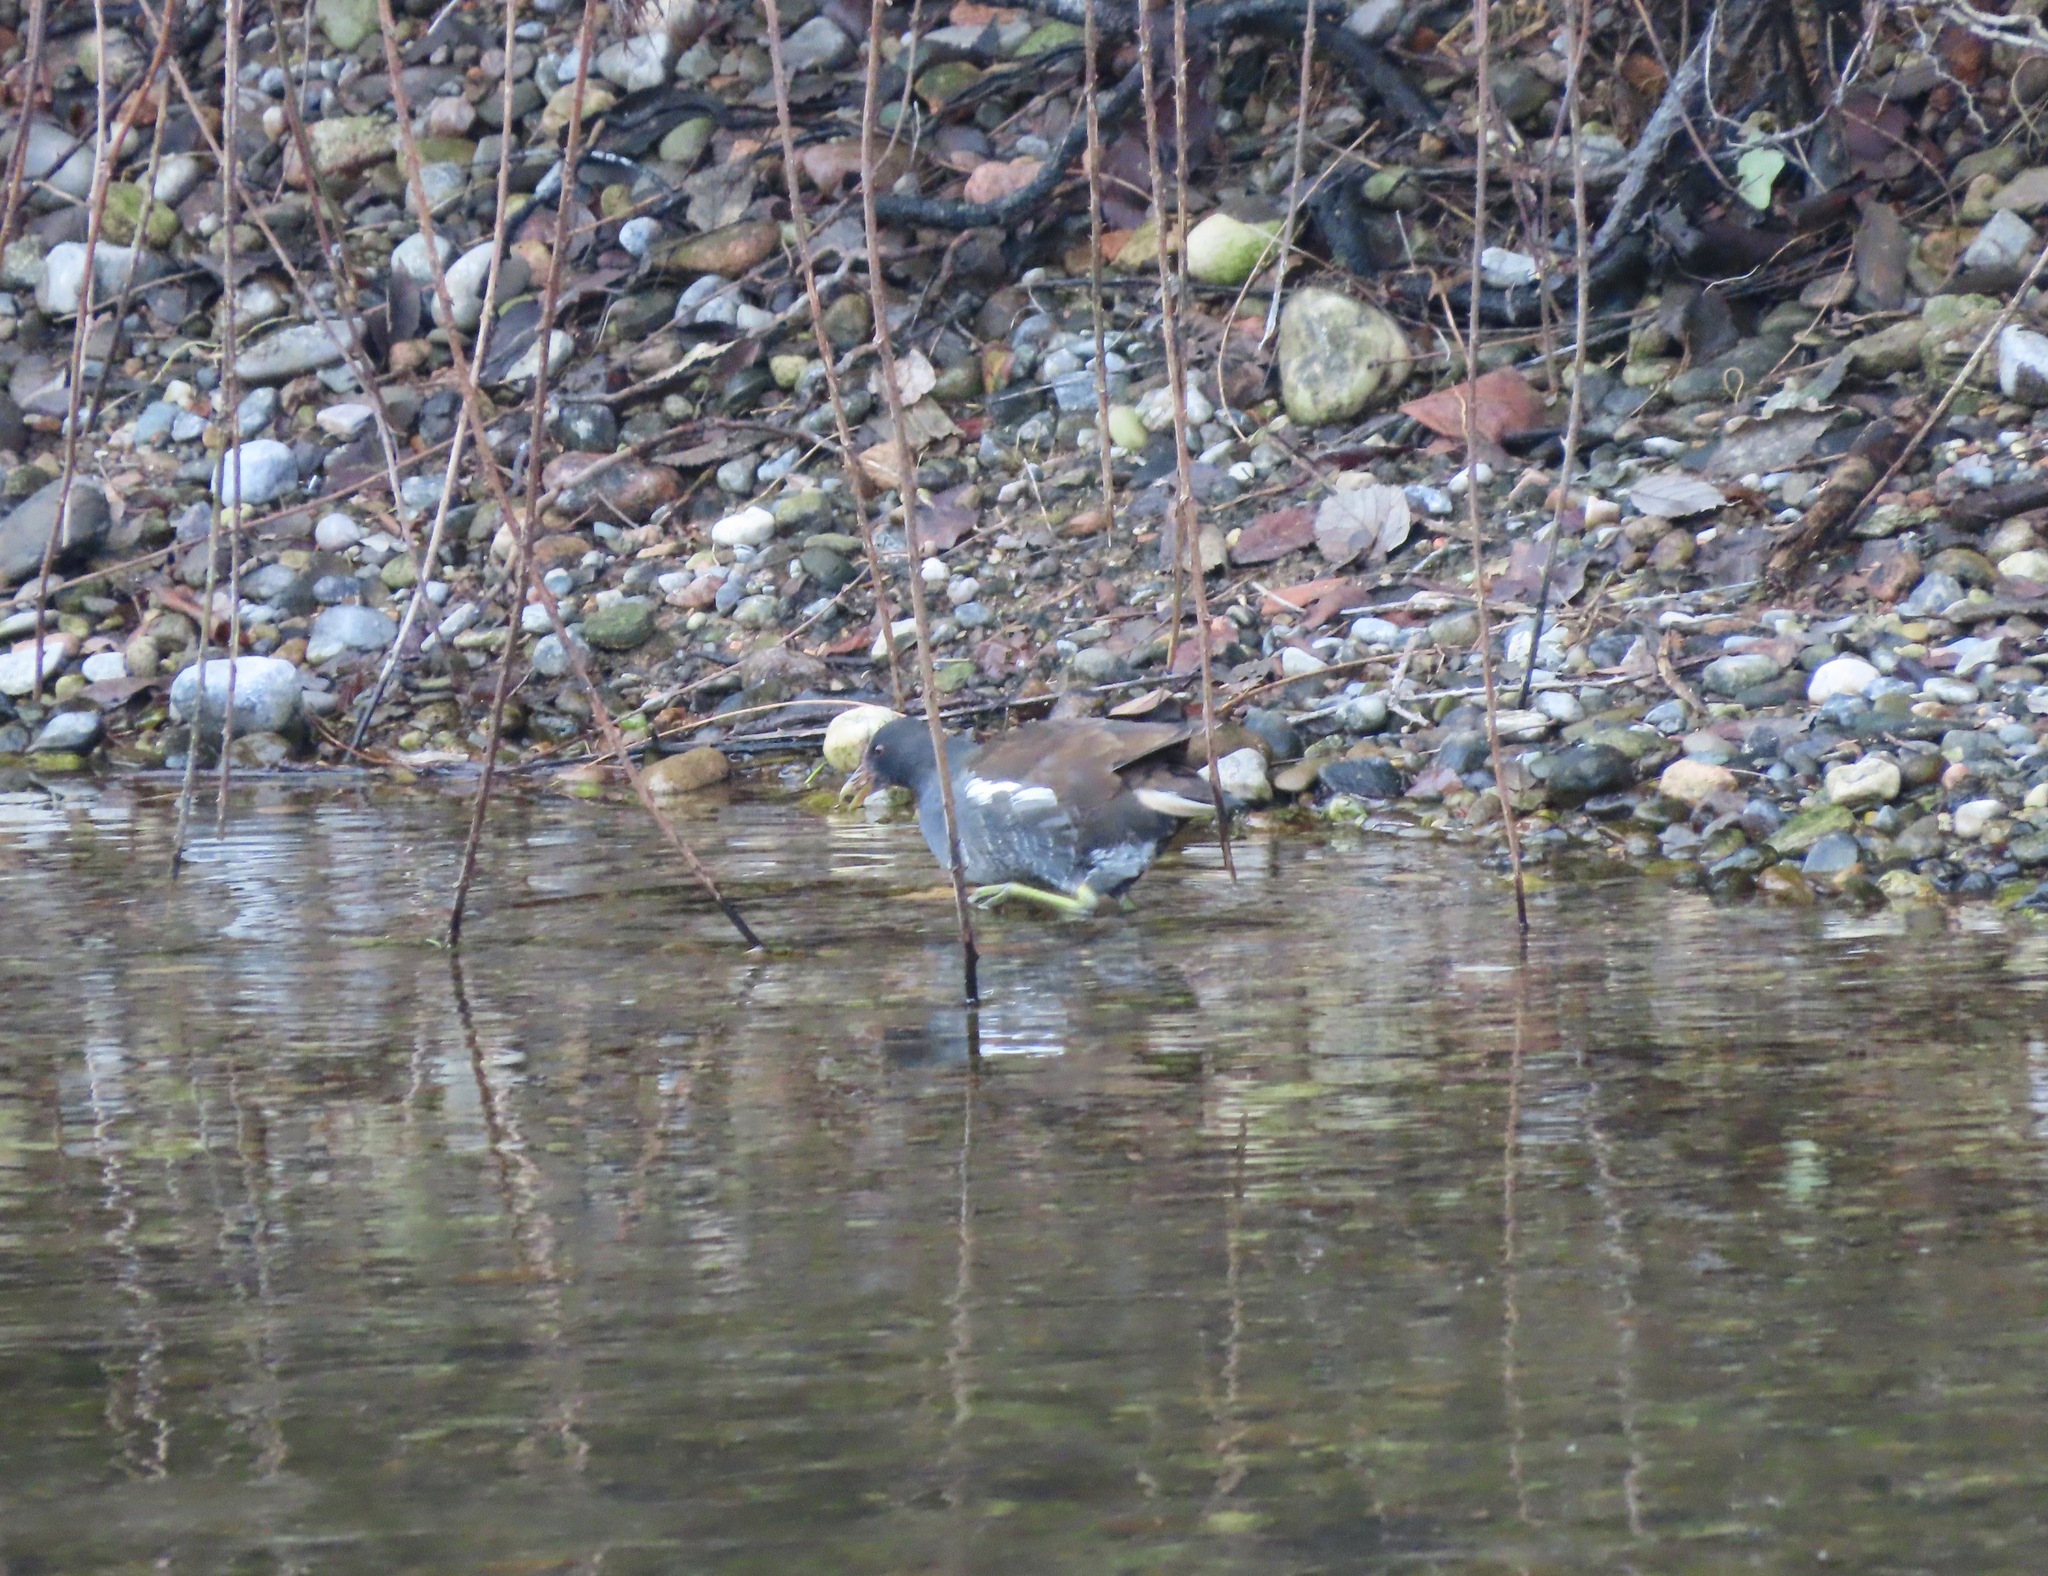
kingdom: Animalia
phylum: Chordata
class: Aves
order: Gruiformes
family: Rallidae
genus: Gallinula
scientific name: Gallinula chloropus
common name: Common moorhen
